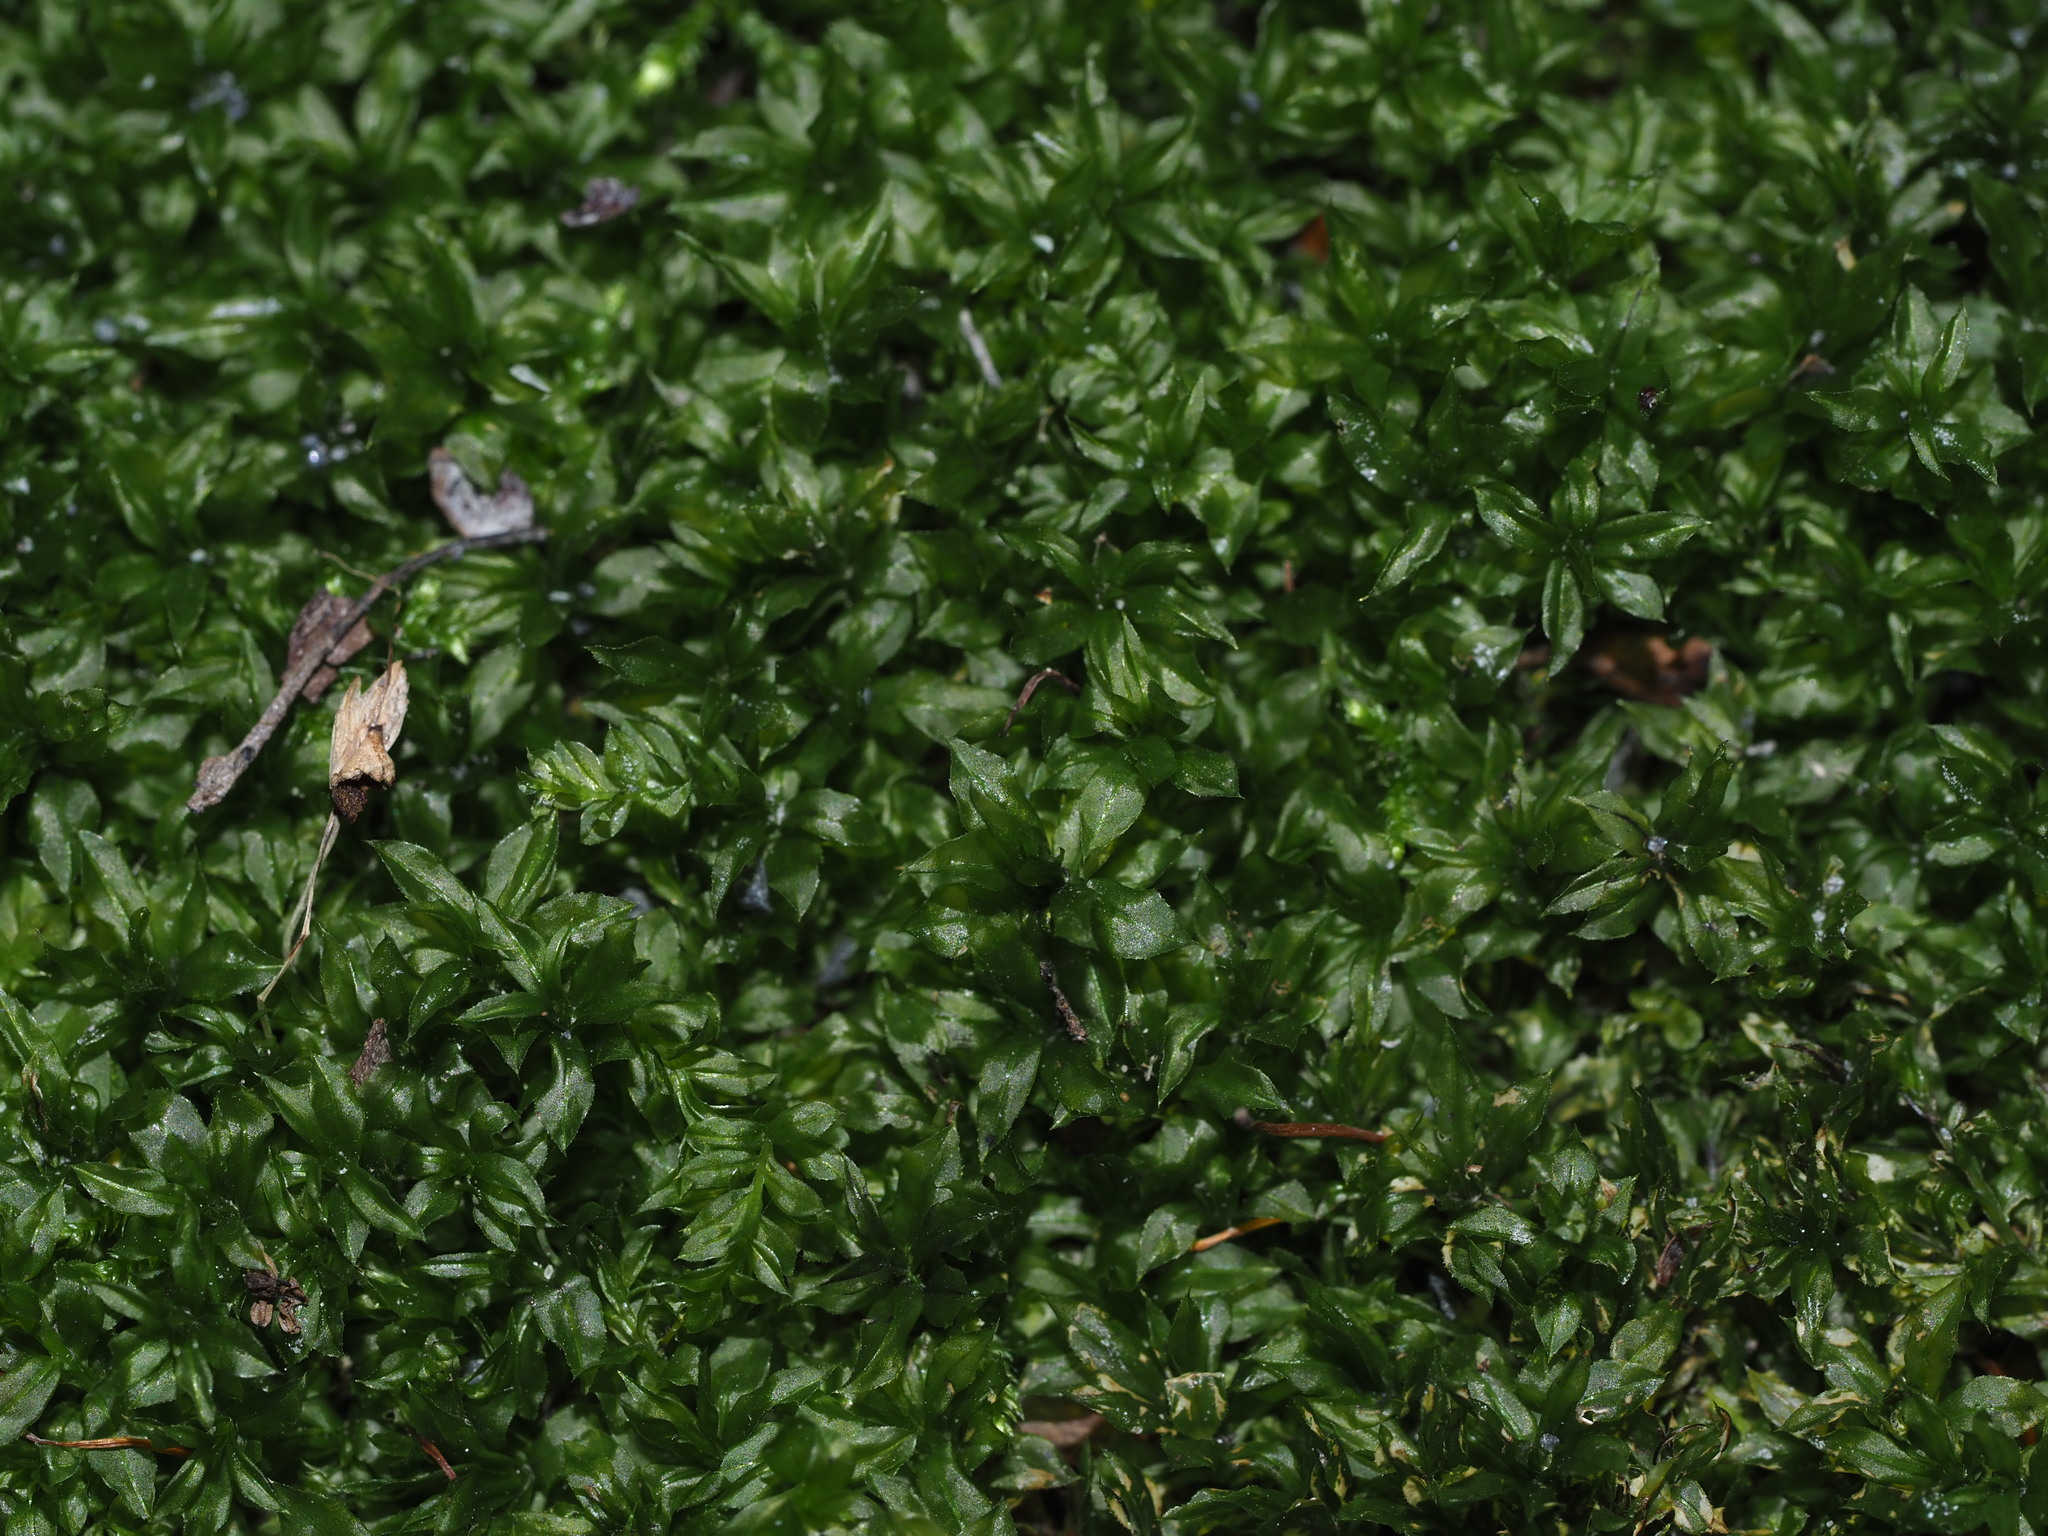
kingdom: Plantae
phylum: Bryophyta
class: Bryopsida
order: Bryales
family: Mniaceae
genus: Plagiomnium
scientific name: Plagiomnium cuspidatum
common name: Woodsy leafy moss
